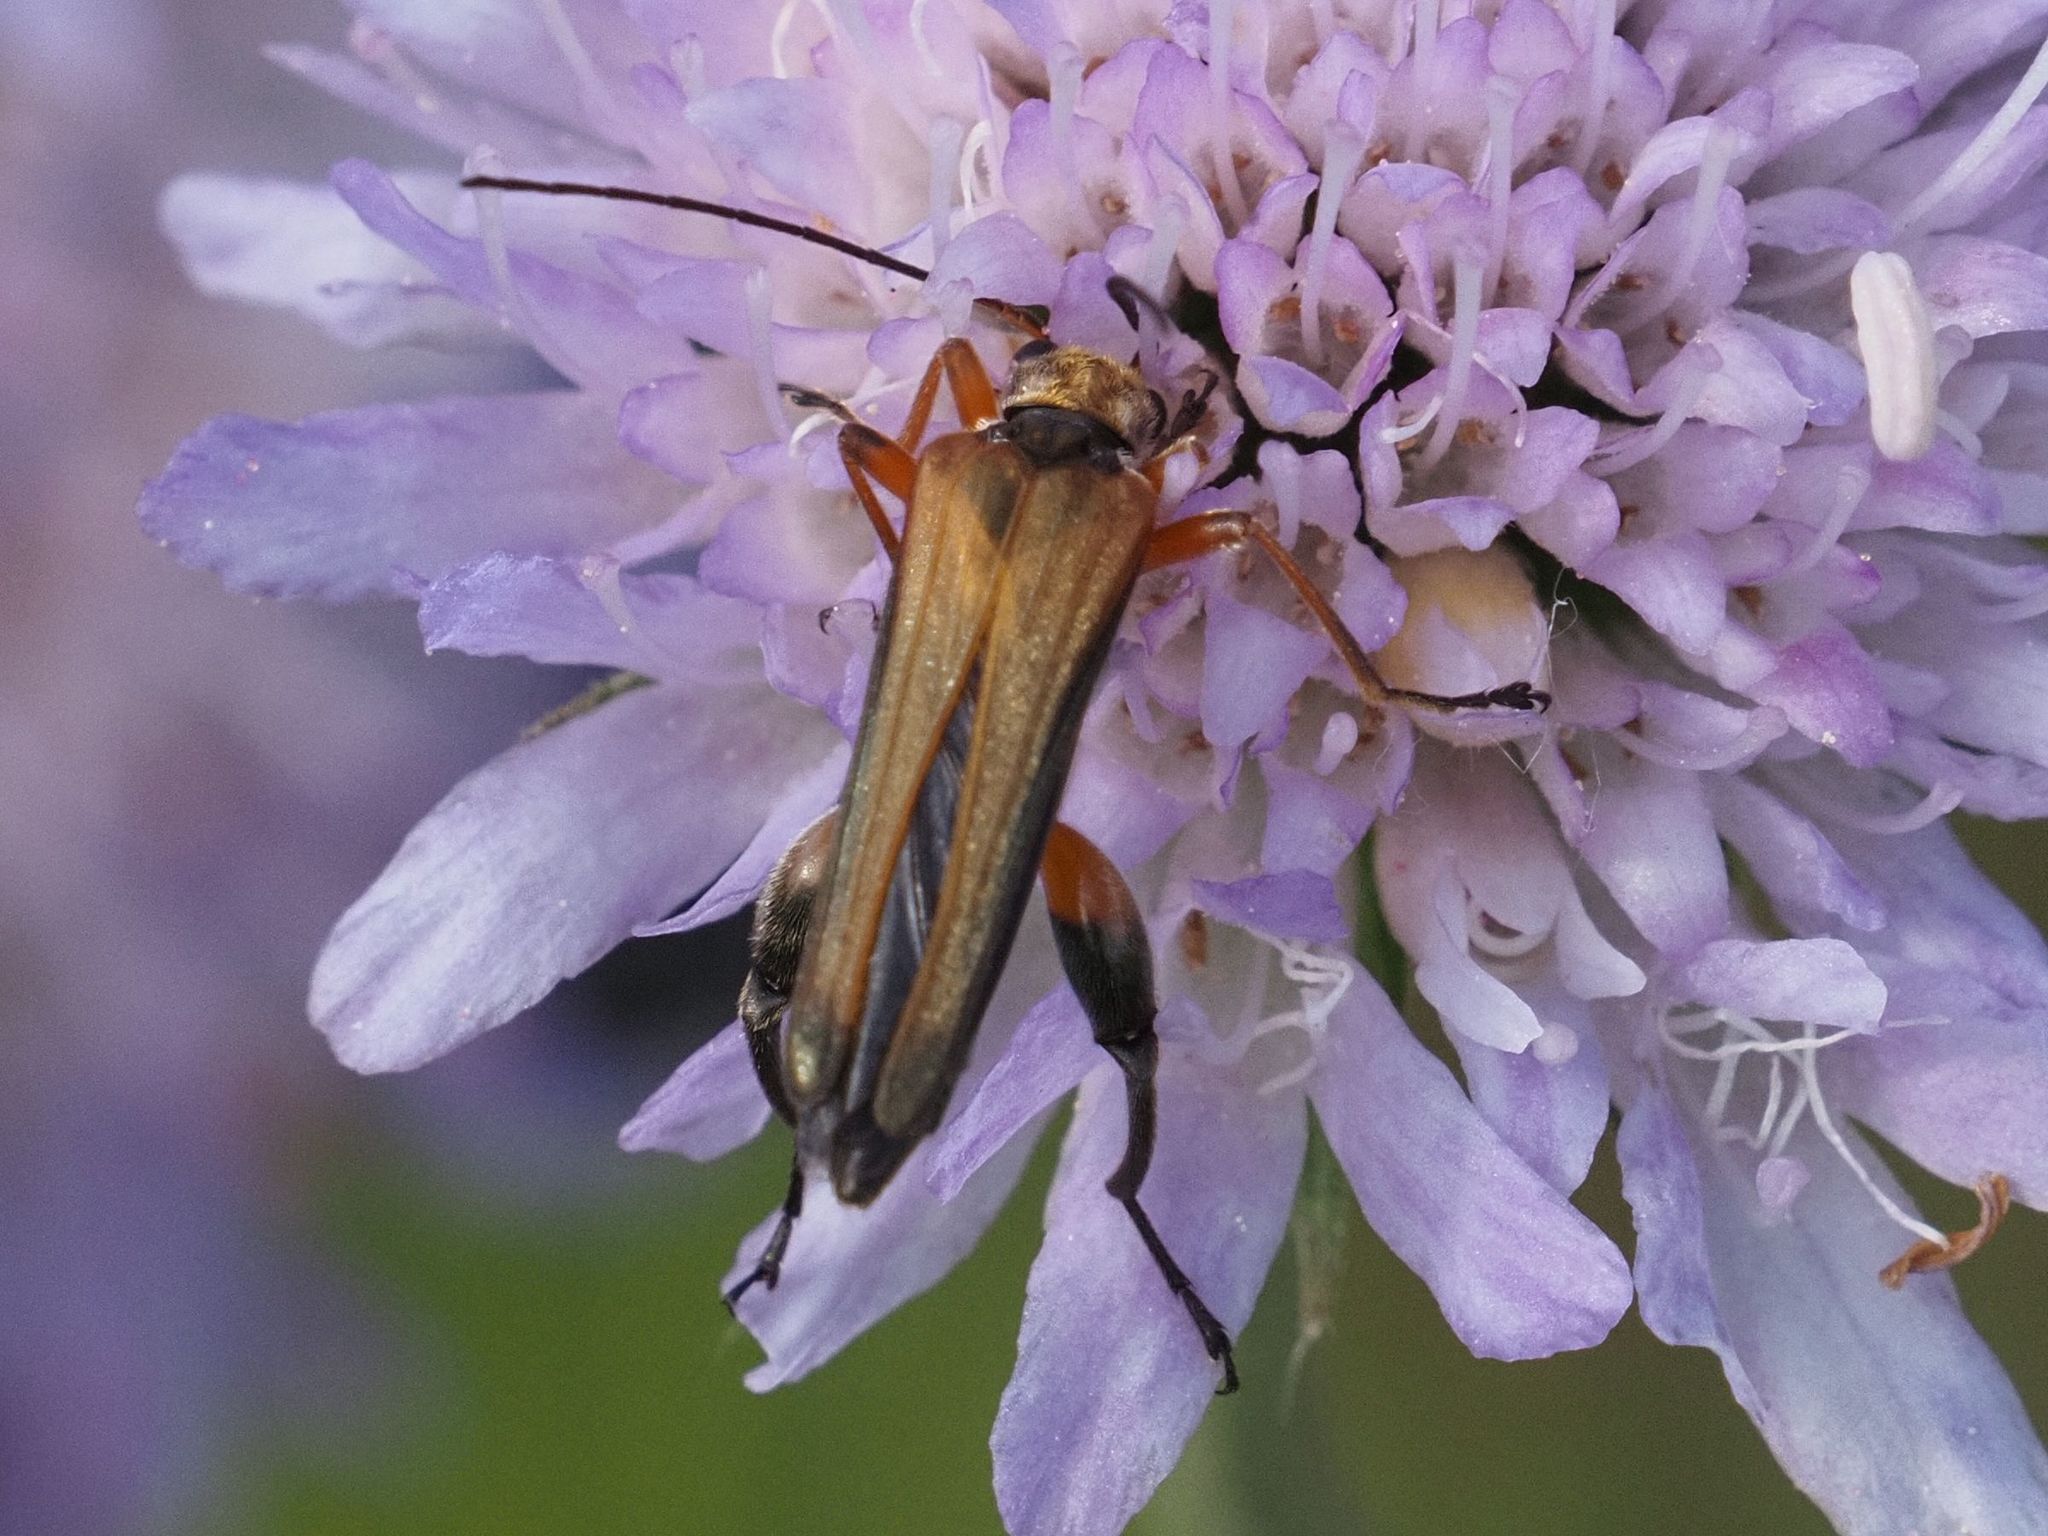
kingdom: Animalia
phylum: Arthropoda
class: Insecta
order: Coleoptera
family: Oedemeridae
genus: Oedemera
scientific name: Oedemera podagrariae
